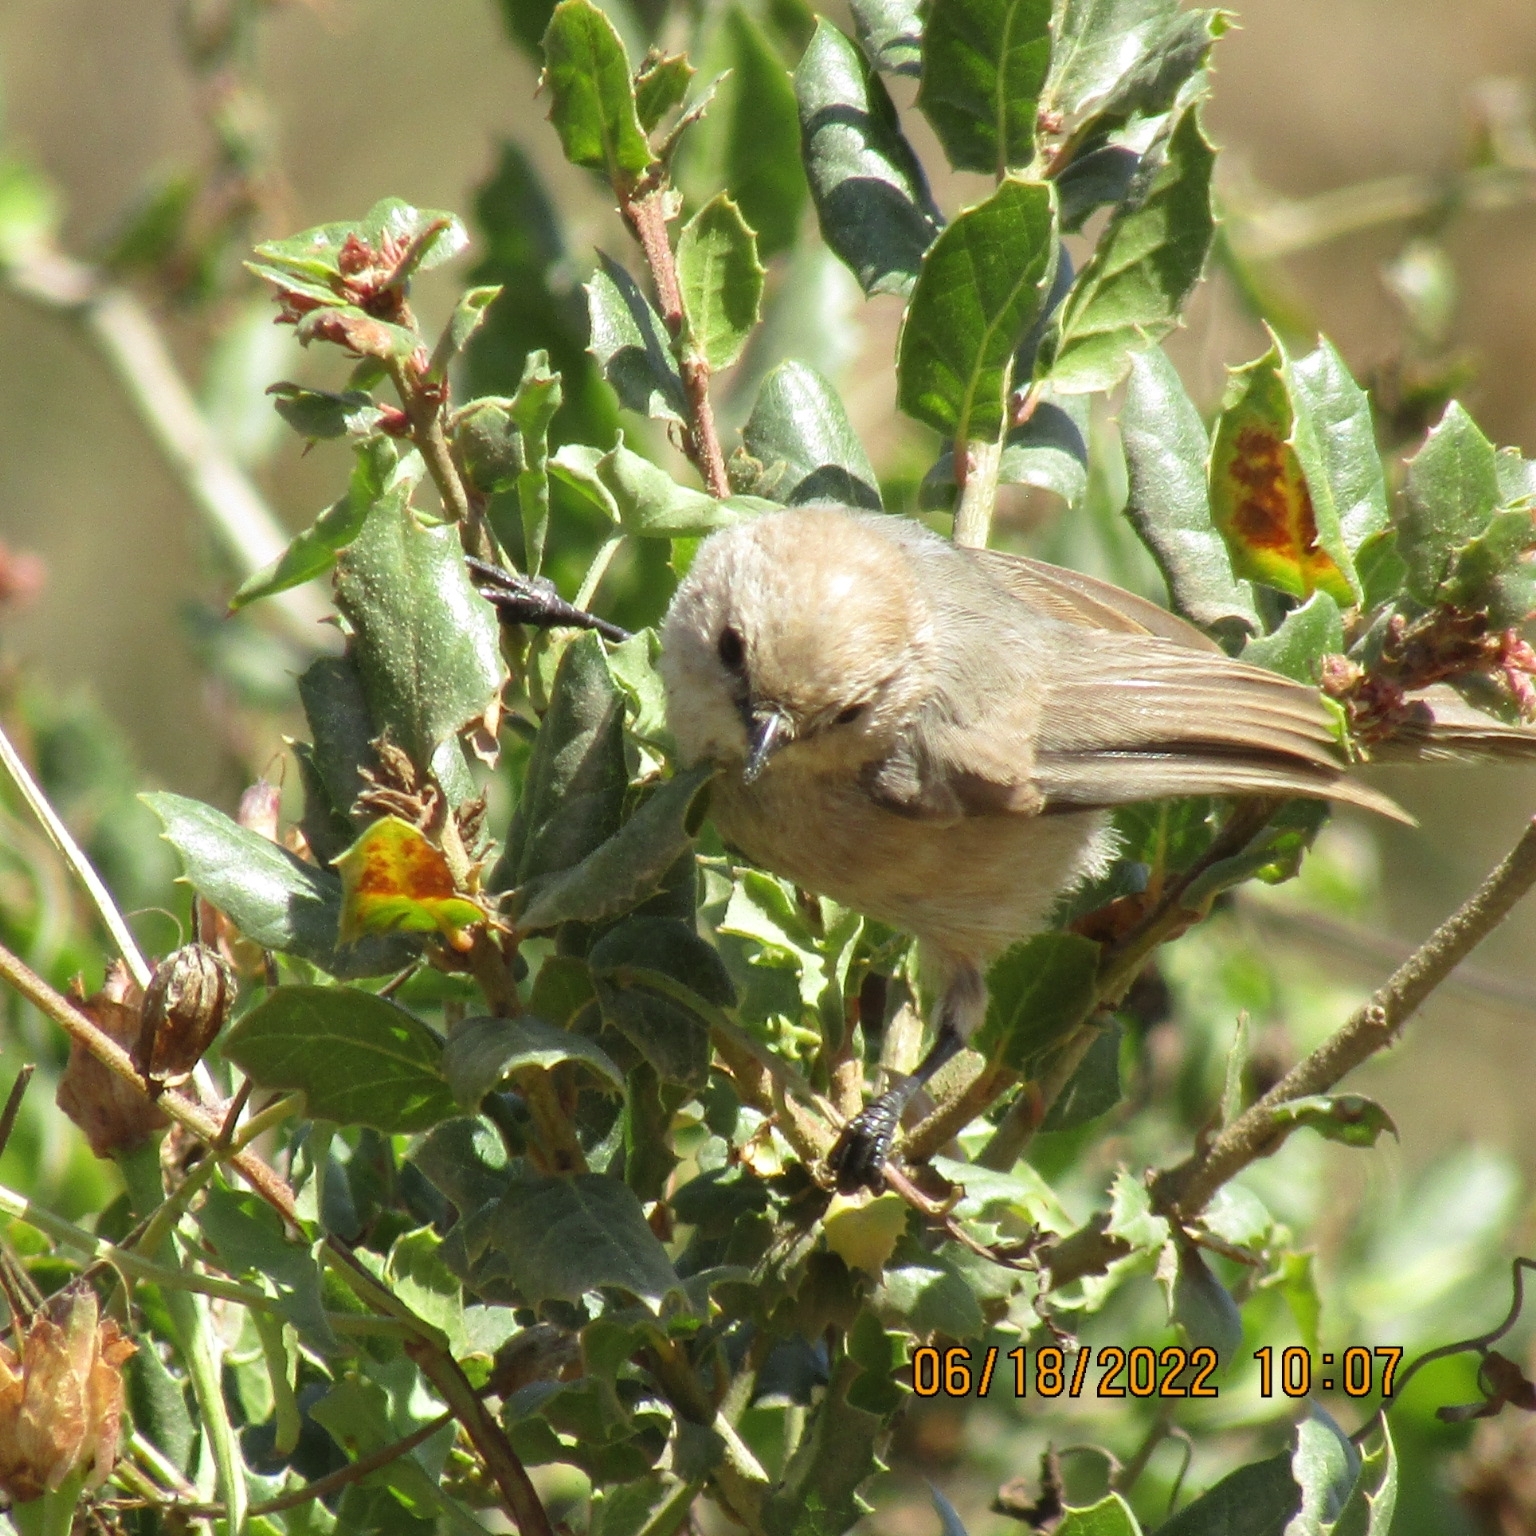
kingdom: Animalia
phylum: Chordata
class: Aves
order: Passeriformes
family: Aegithalidae
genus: Psaltriparus
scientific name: Psaltriparus minimus
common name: American bushtit
